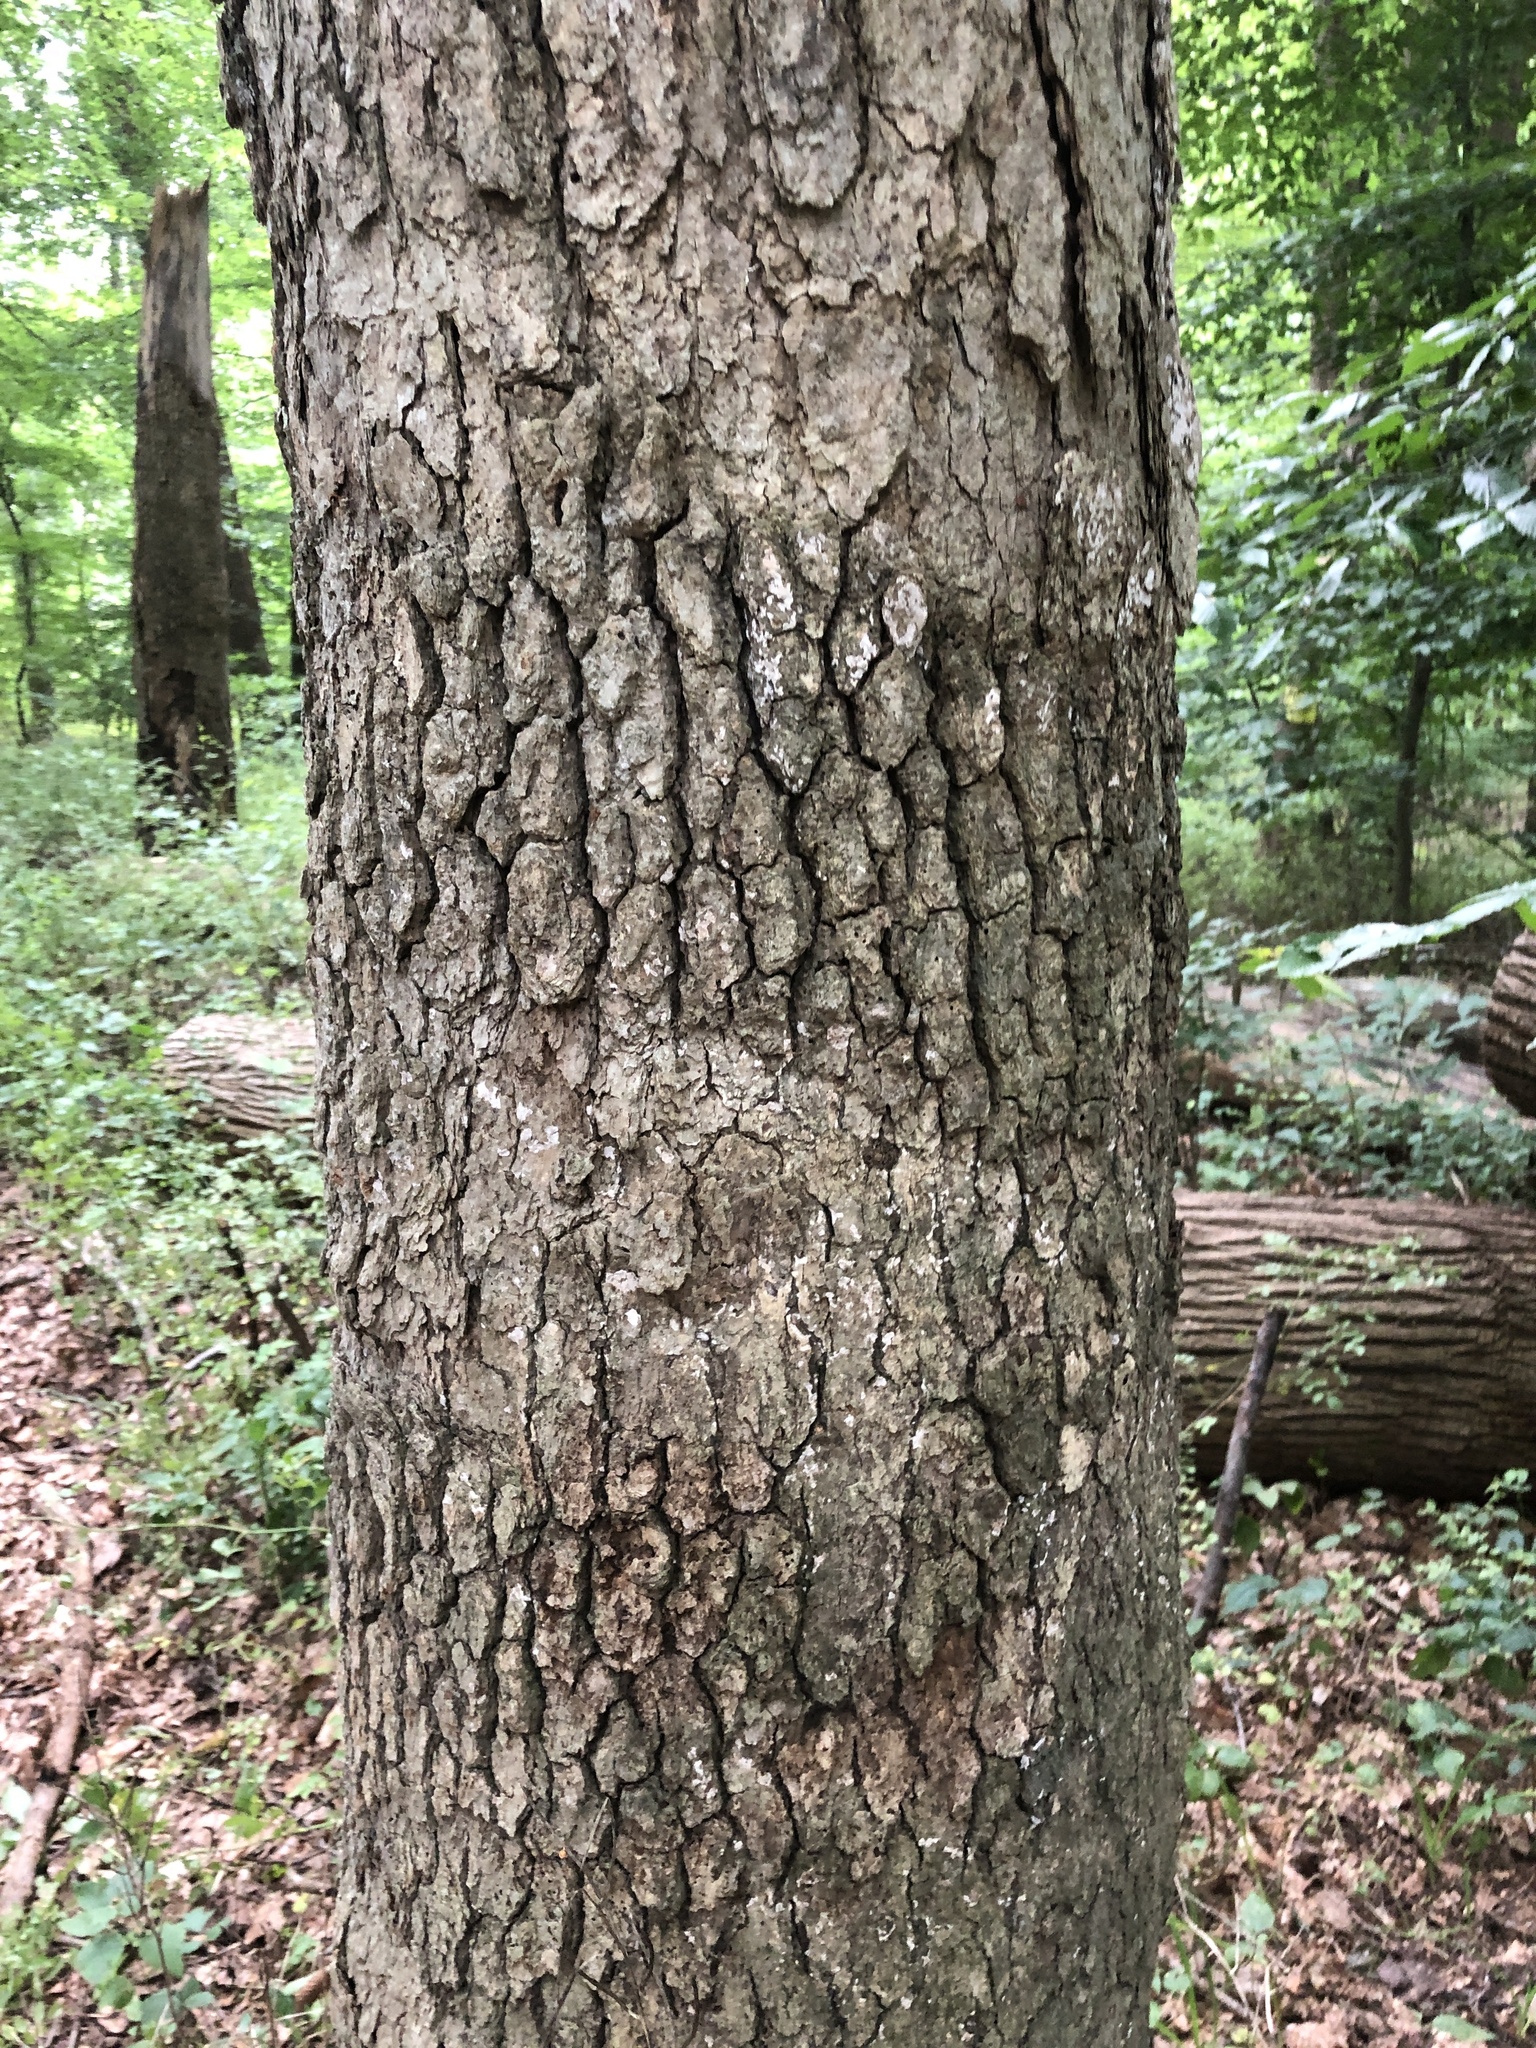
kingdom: Fungi
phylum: Basidiomycota
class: Agaricomycetes
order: Russulales
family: Stereaceae
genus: Acanthophysium
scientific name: Acanthophysium oakesii
